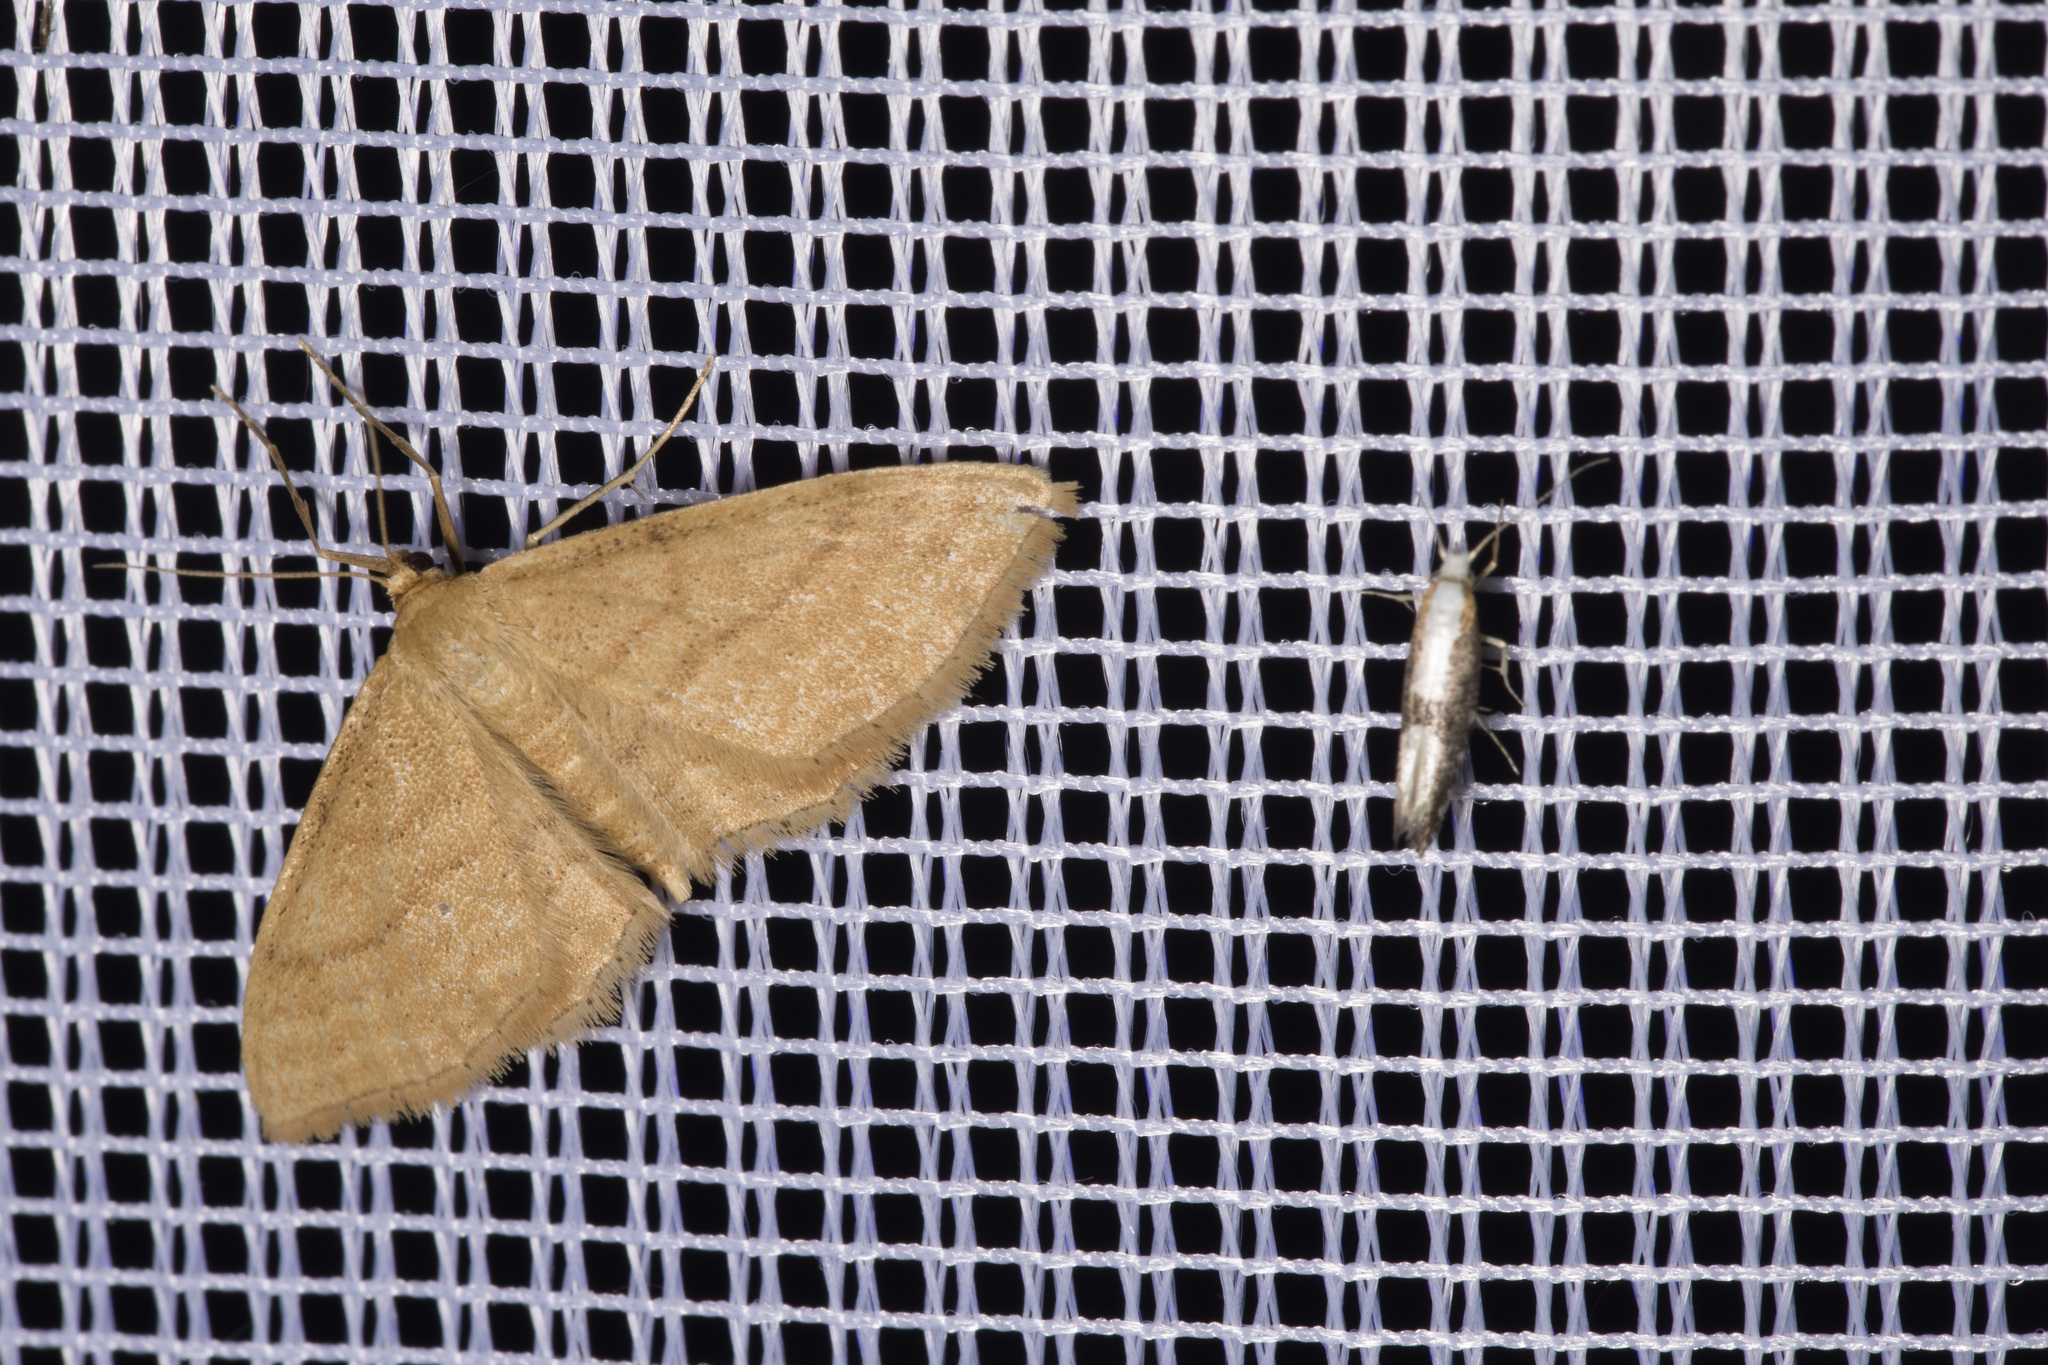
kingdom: Animalia
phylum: Arthropoda
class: Insecta
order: Lepidoptera
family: Geometridae
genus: Idaea
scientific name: Idaea ochrata
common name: Bright wave
